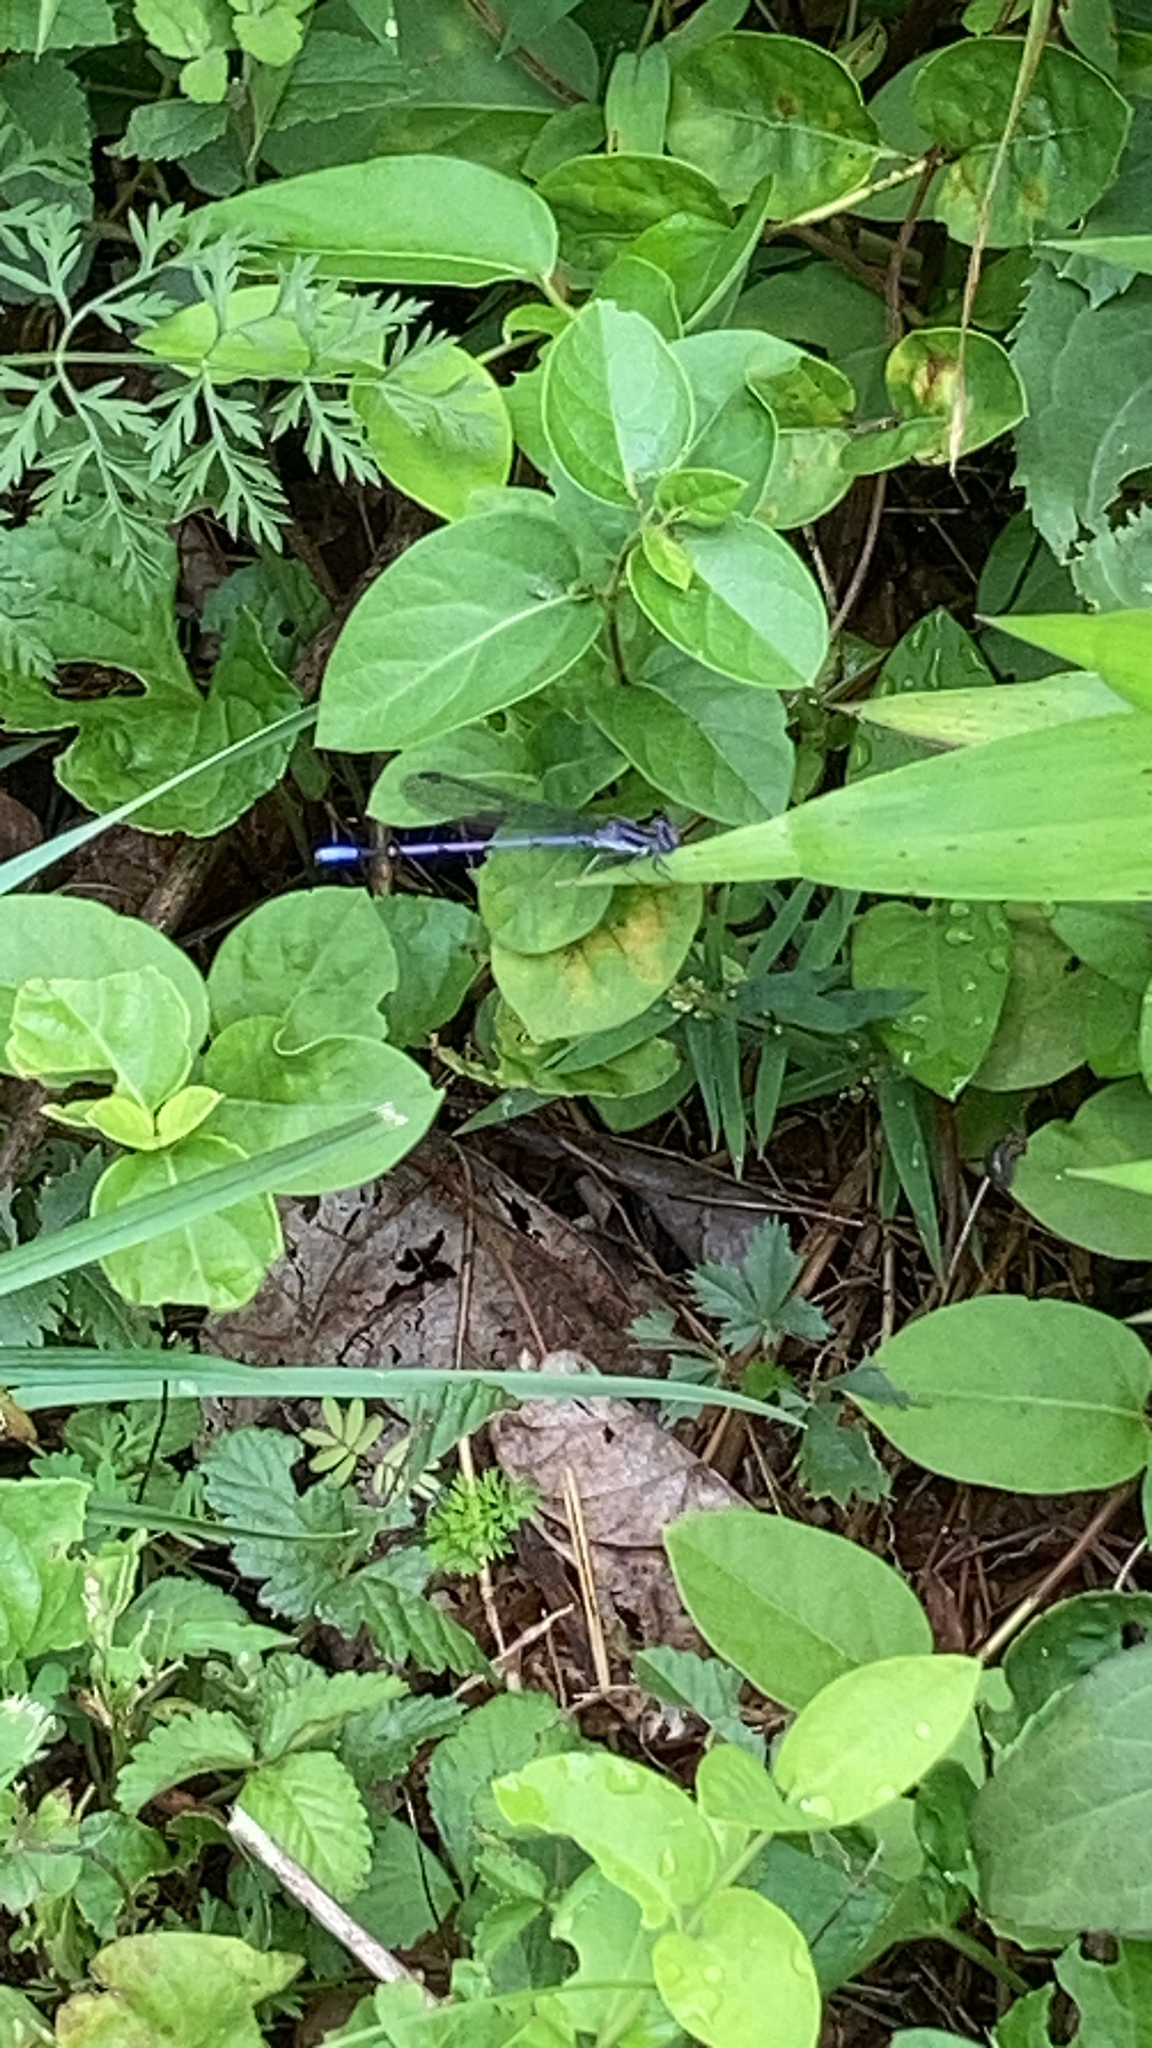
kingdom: Animalia
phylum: Arthropoda
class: Insecta
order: Odonata
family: Coenagrionidae
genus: Argia
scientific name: Argia fumipennis
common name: Variable dancer
